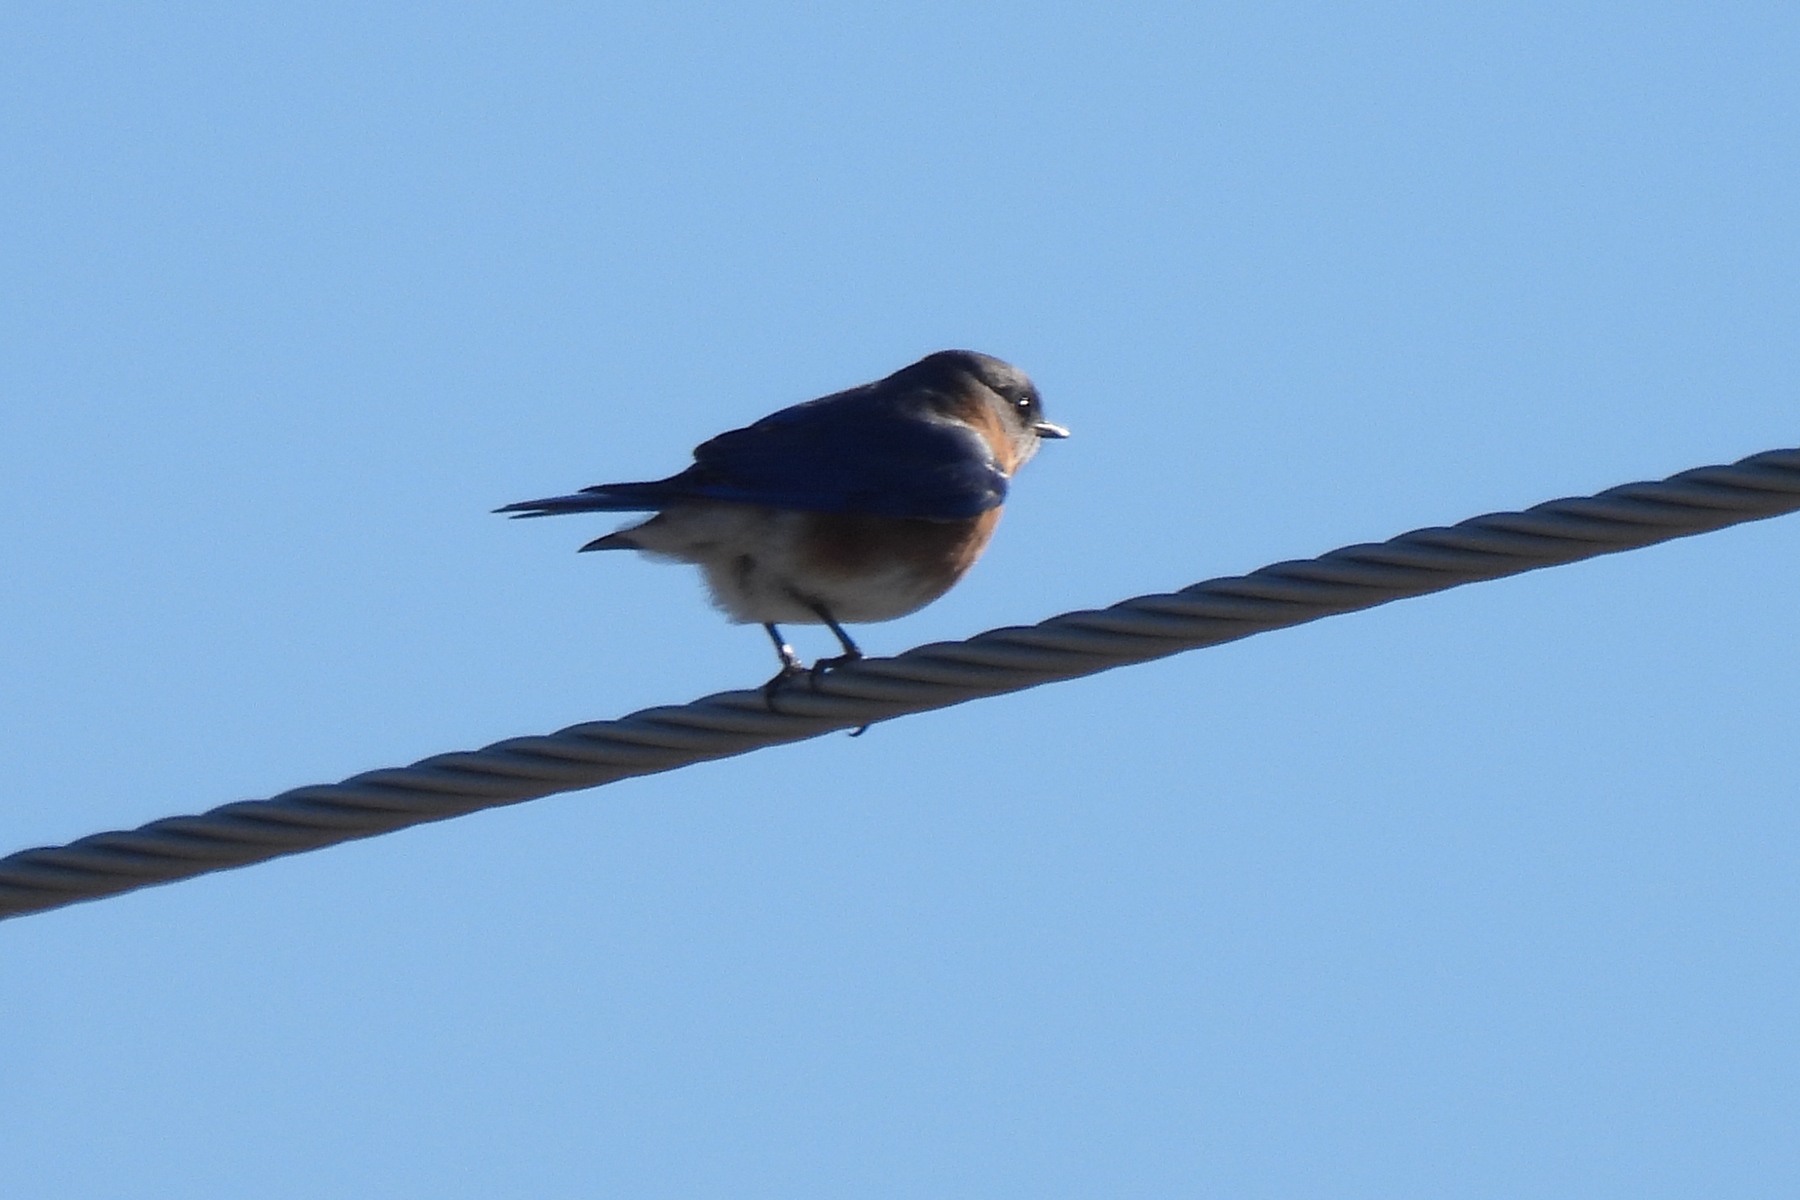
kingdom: Animalia
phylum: Chordata
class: Aves
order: Passeriformes
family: Turdidae
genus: Sialia
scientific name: Sialia sialis
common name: Eastern bluebird
